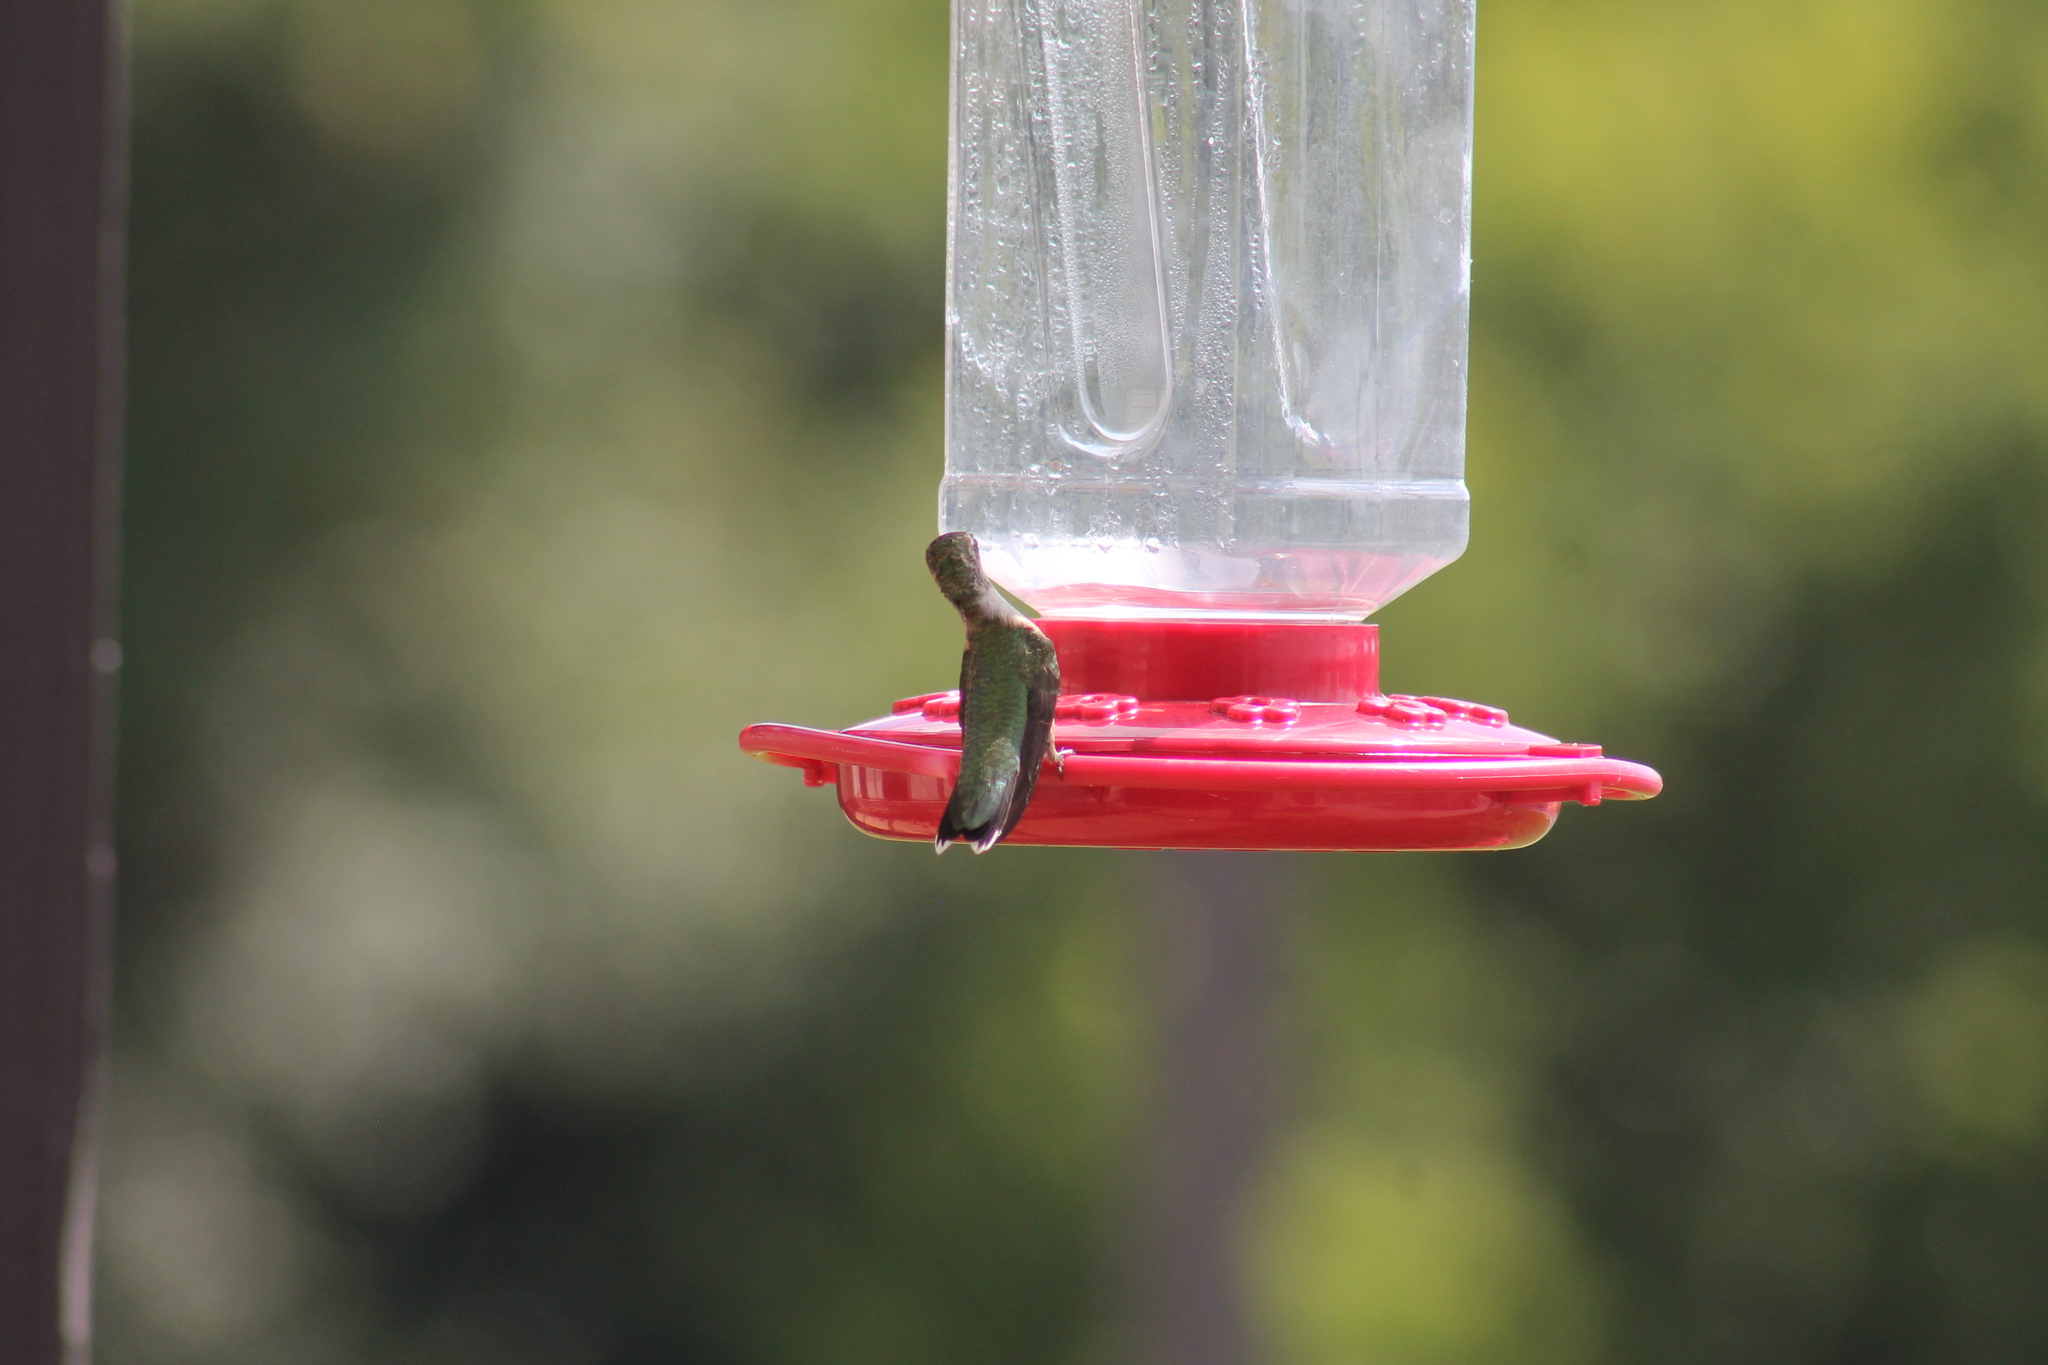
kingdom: Animalia
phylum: Chordata
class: Aves
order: Apodiformes
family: Trochilidae
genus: Archilochus
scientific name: Archilochus colubris
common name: Ruby-throated hummingbird
